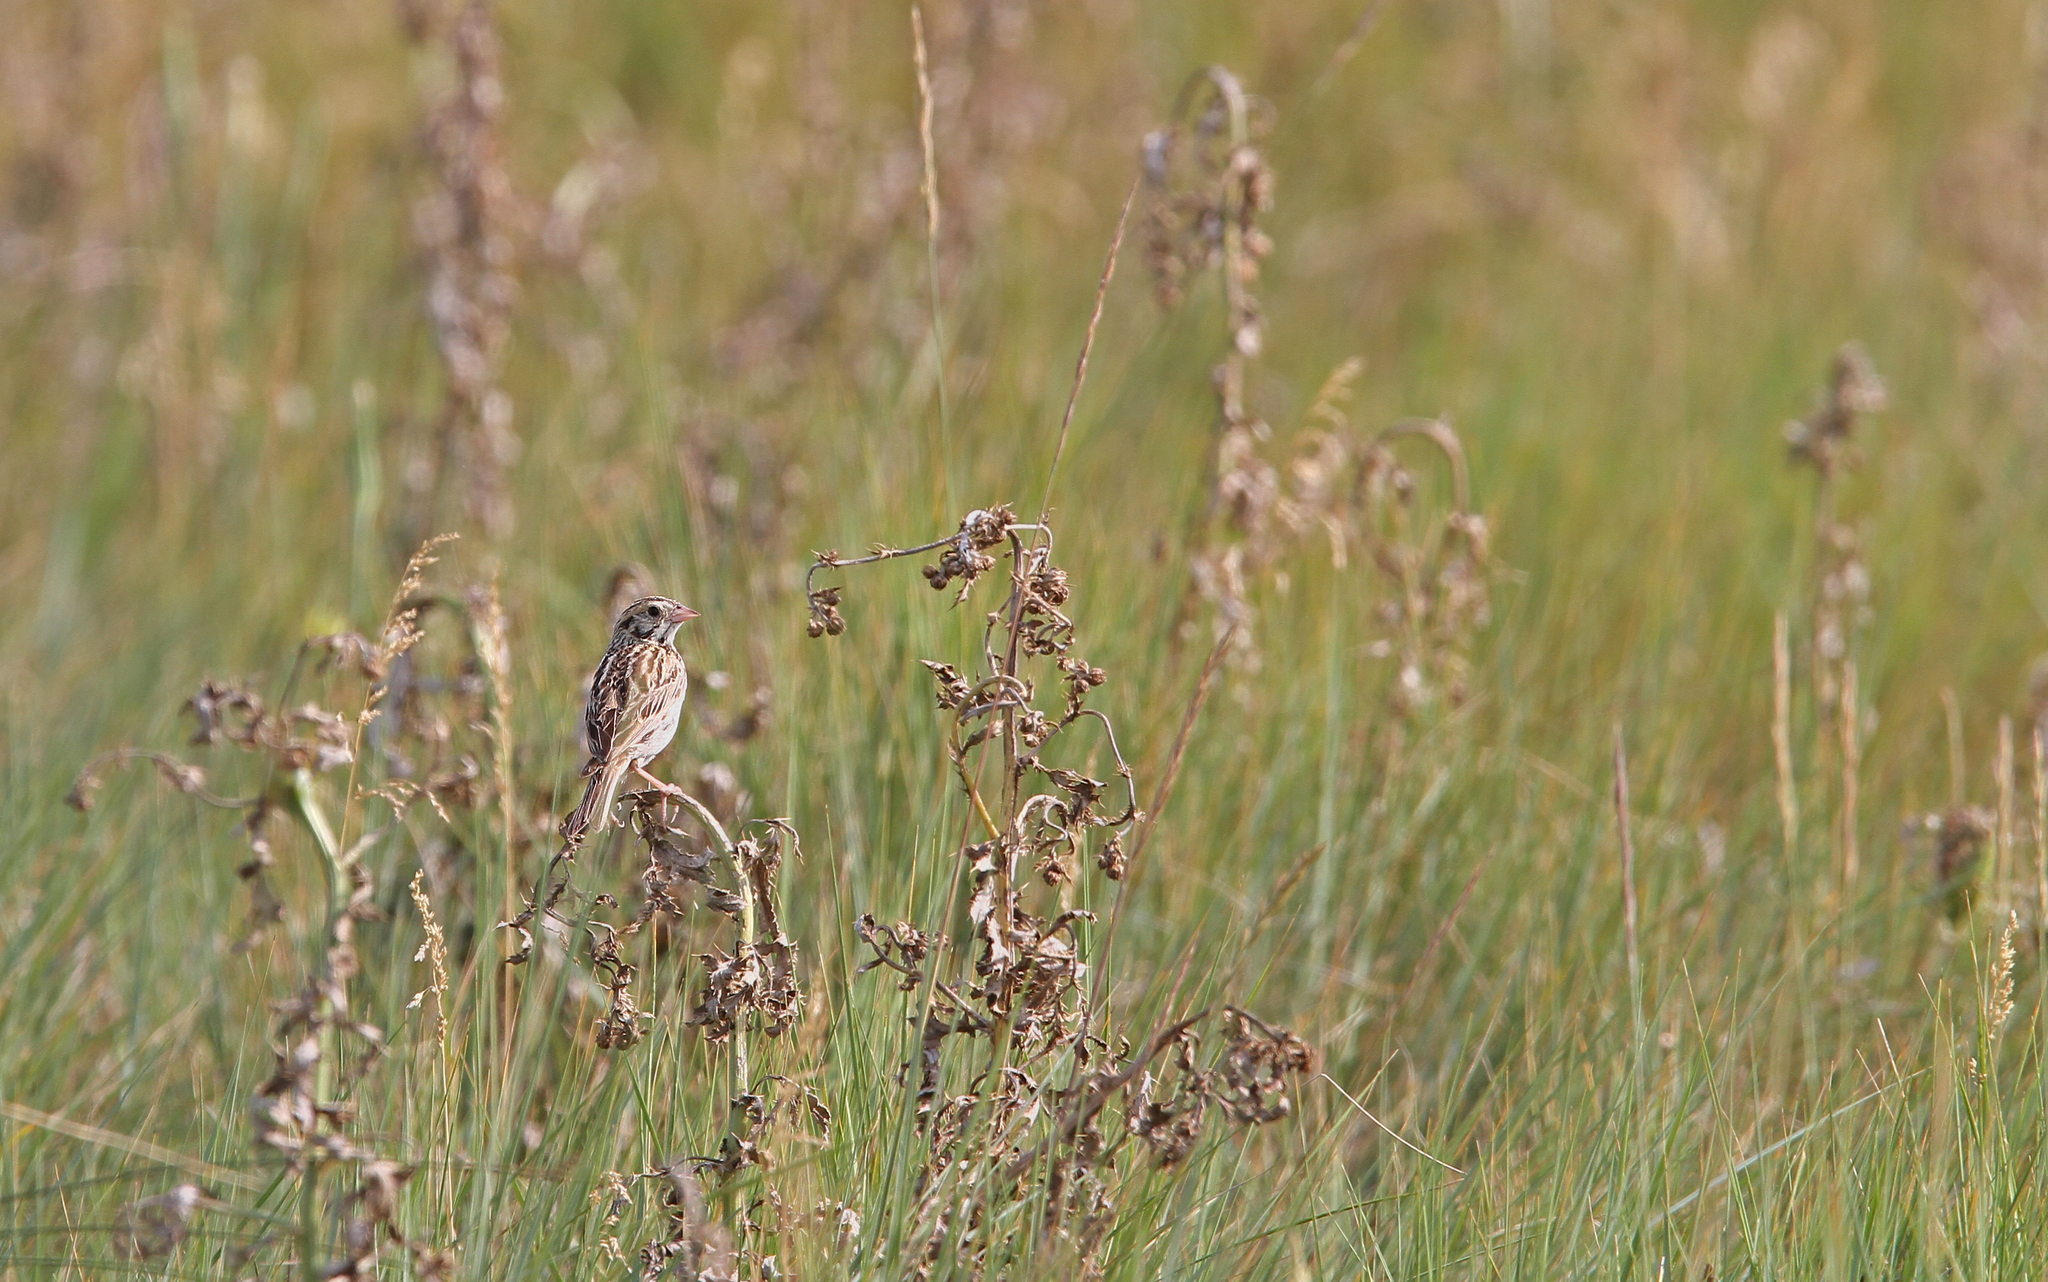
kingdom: Animalia
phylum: Chordata
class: Aves
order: Passeriformes
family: Passerellidae
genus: Centronyx
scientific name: Centronyx bairdii
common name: Baird's sparrow
